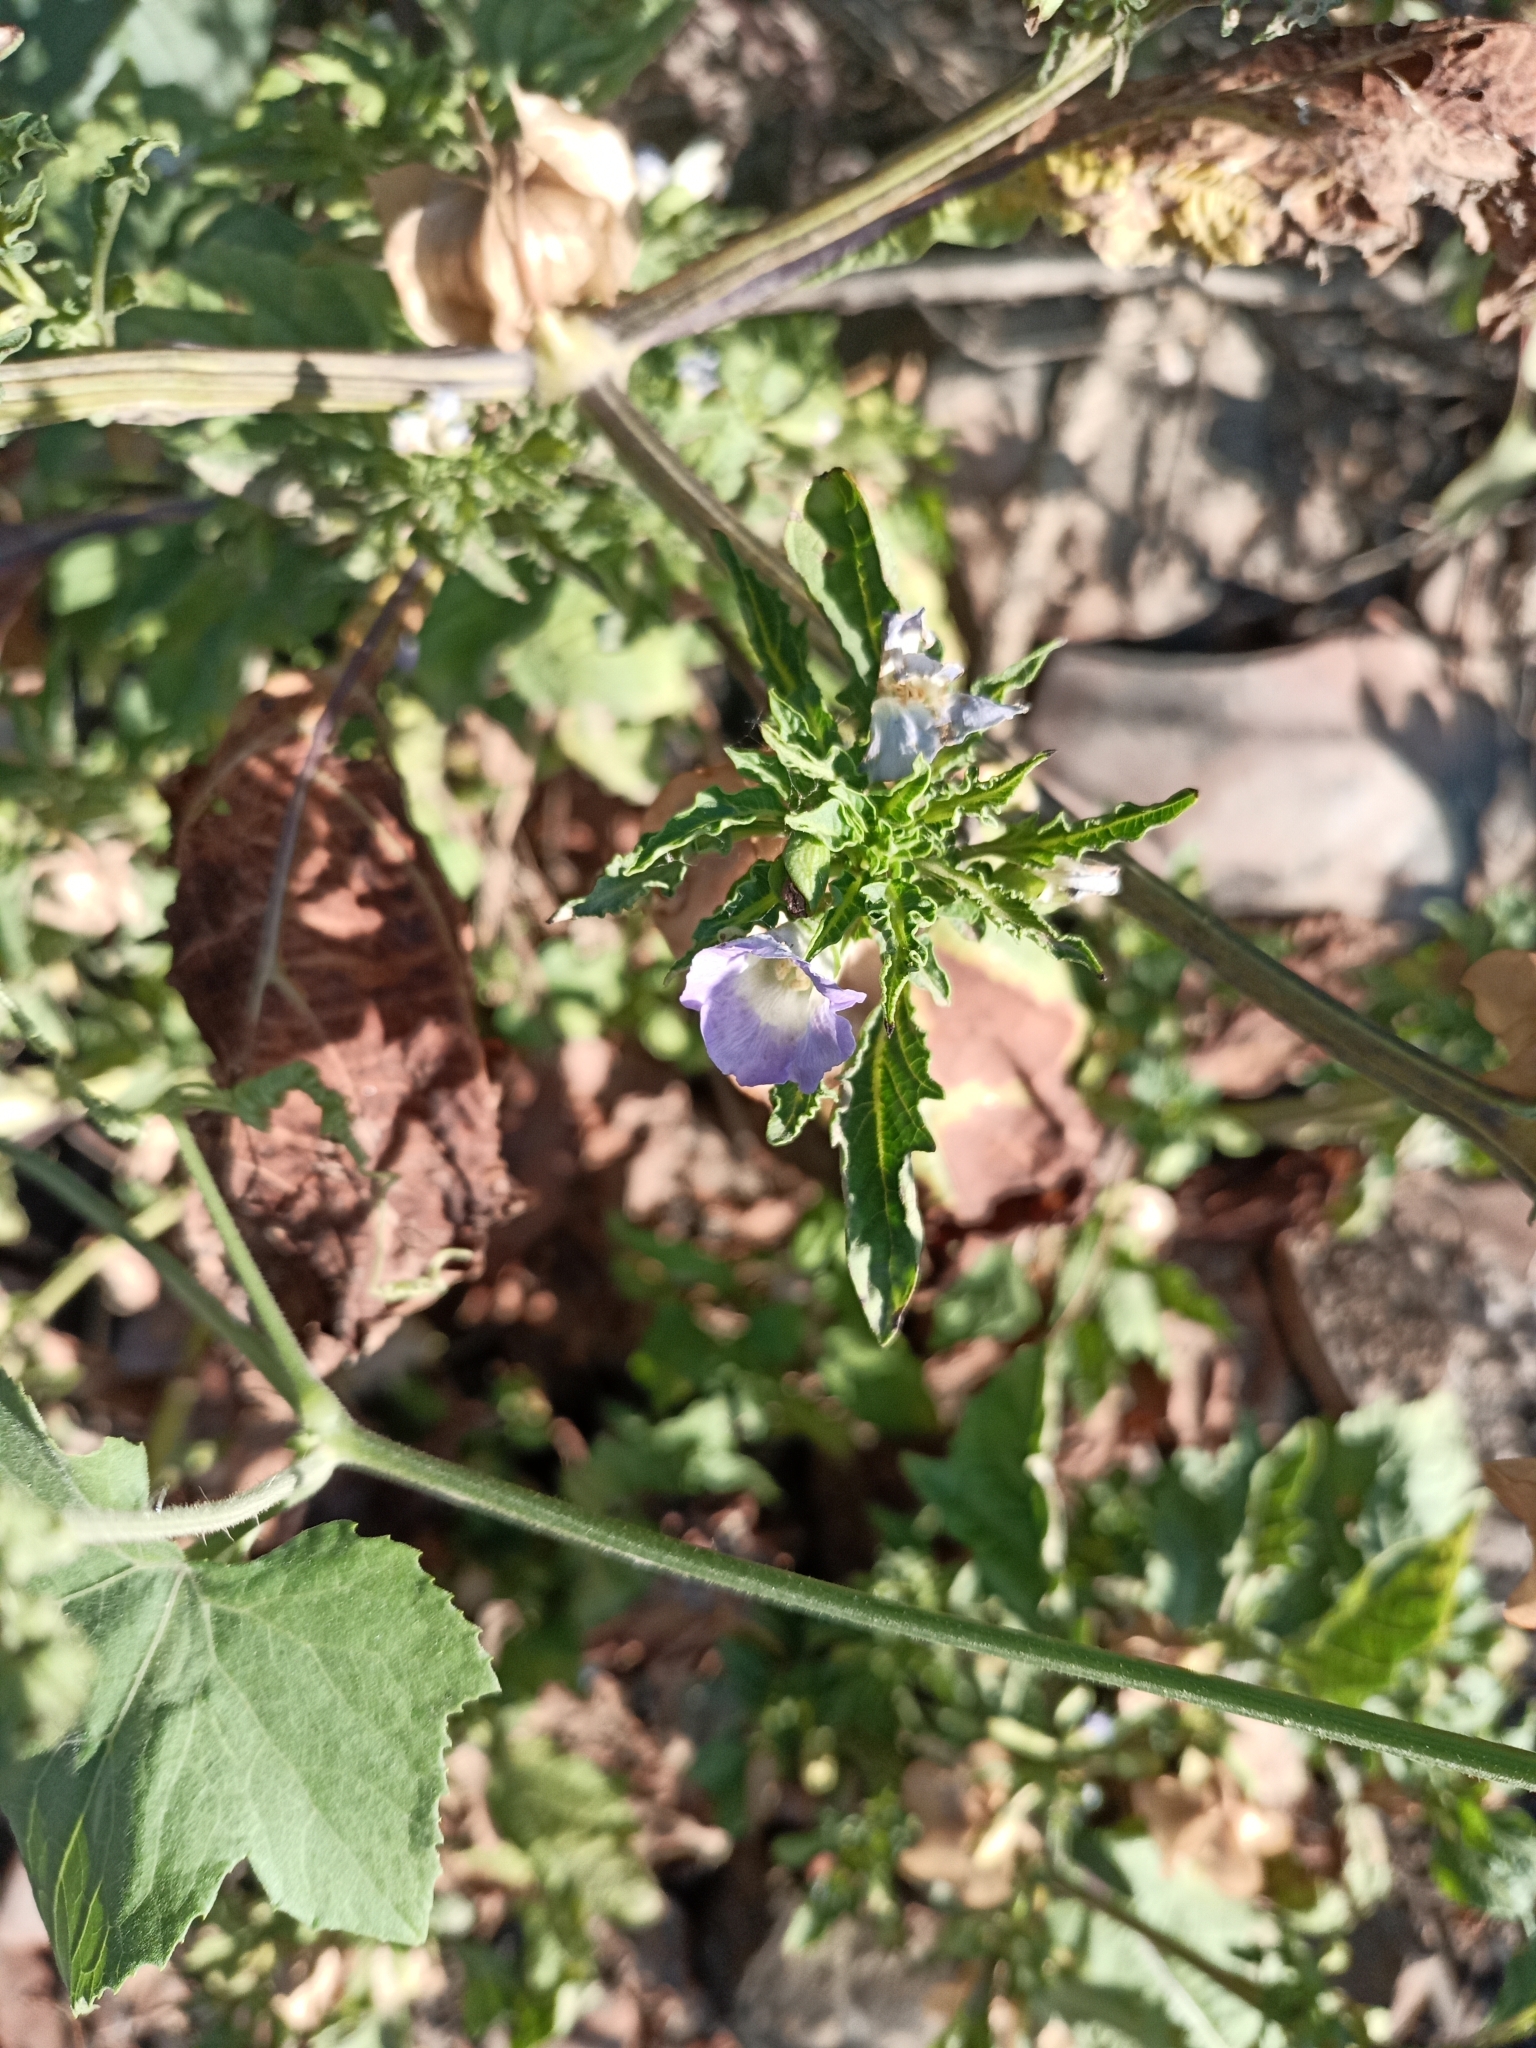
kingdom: Plantae
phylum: Tracheophyta
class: Magnoliopsida
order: Solanales
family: Solanaceae
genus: Nicandra
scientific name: Nicandra physalodes
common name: Apple-of-peru
